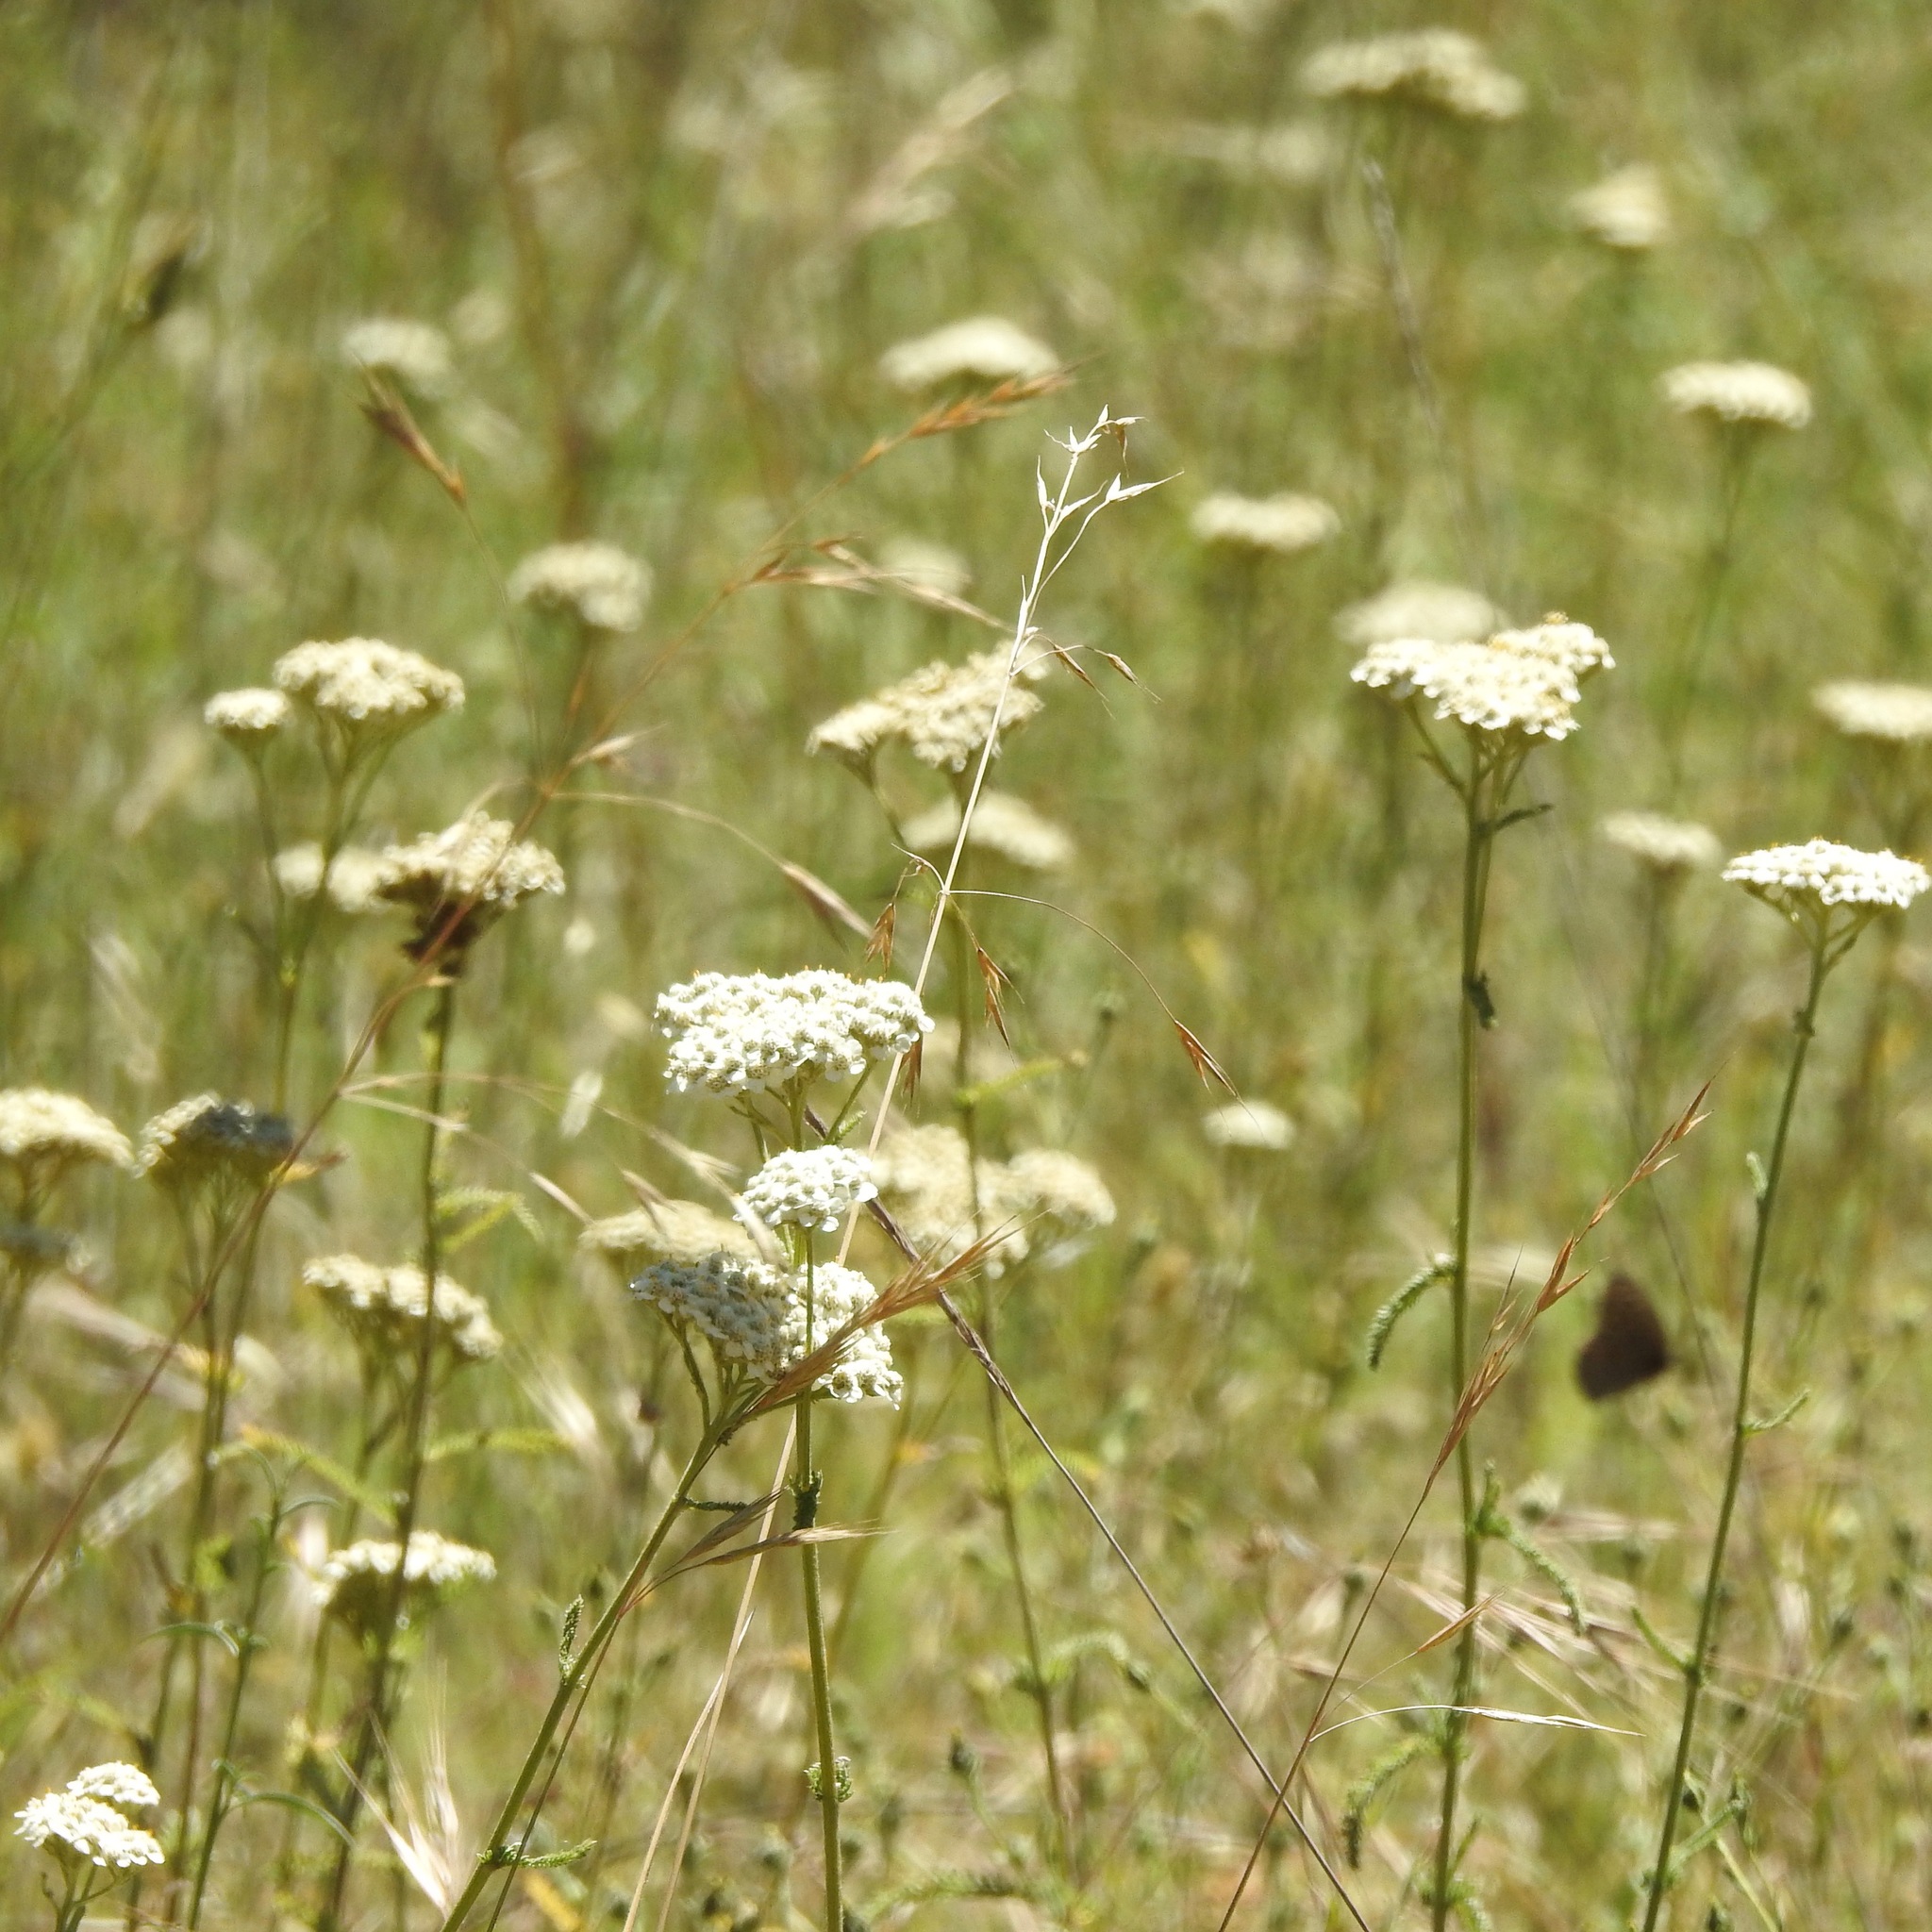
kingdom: Plantae
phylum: Tracheophyta
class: Magnoliopsida
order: Asterales
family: Asteraceae
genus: Achillea
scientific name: Achillea millefolium
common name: Yarrow
